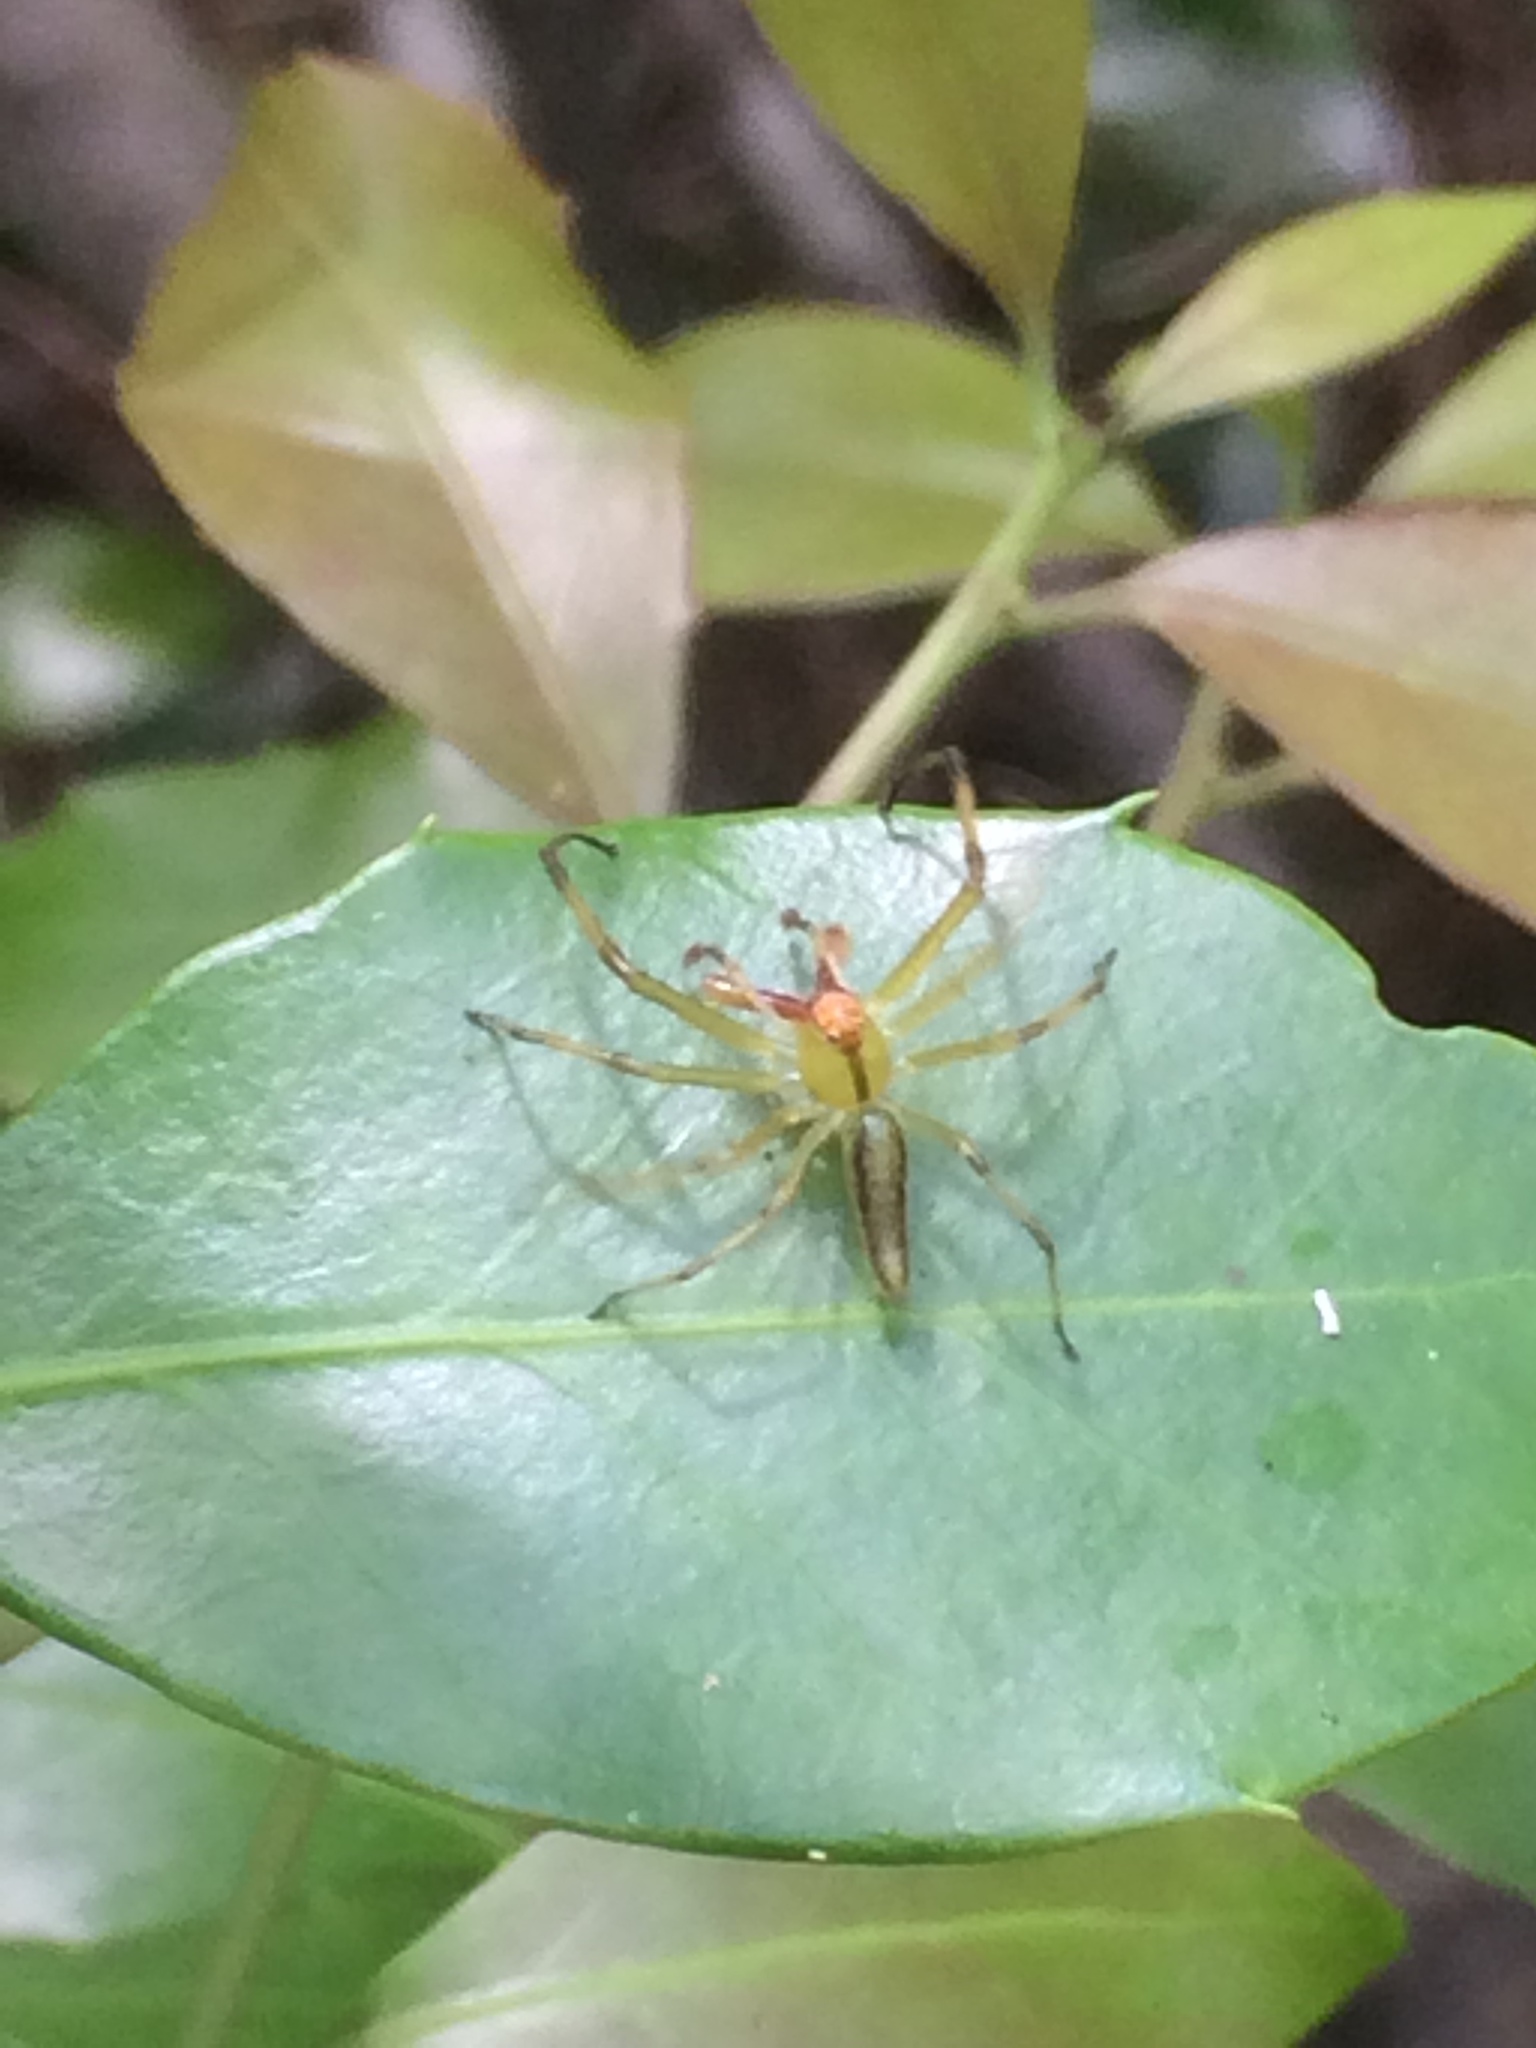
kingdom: Animalia
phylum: Arthropoda
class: Arachnida
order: Araneae
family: Salticidae
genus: Lyssomanes
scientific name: Lyssomanes viridis
